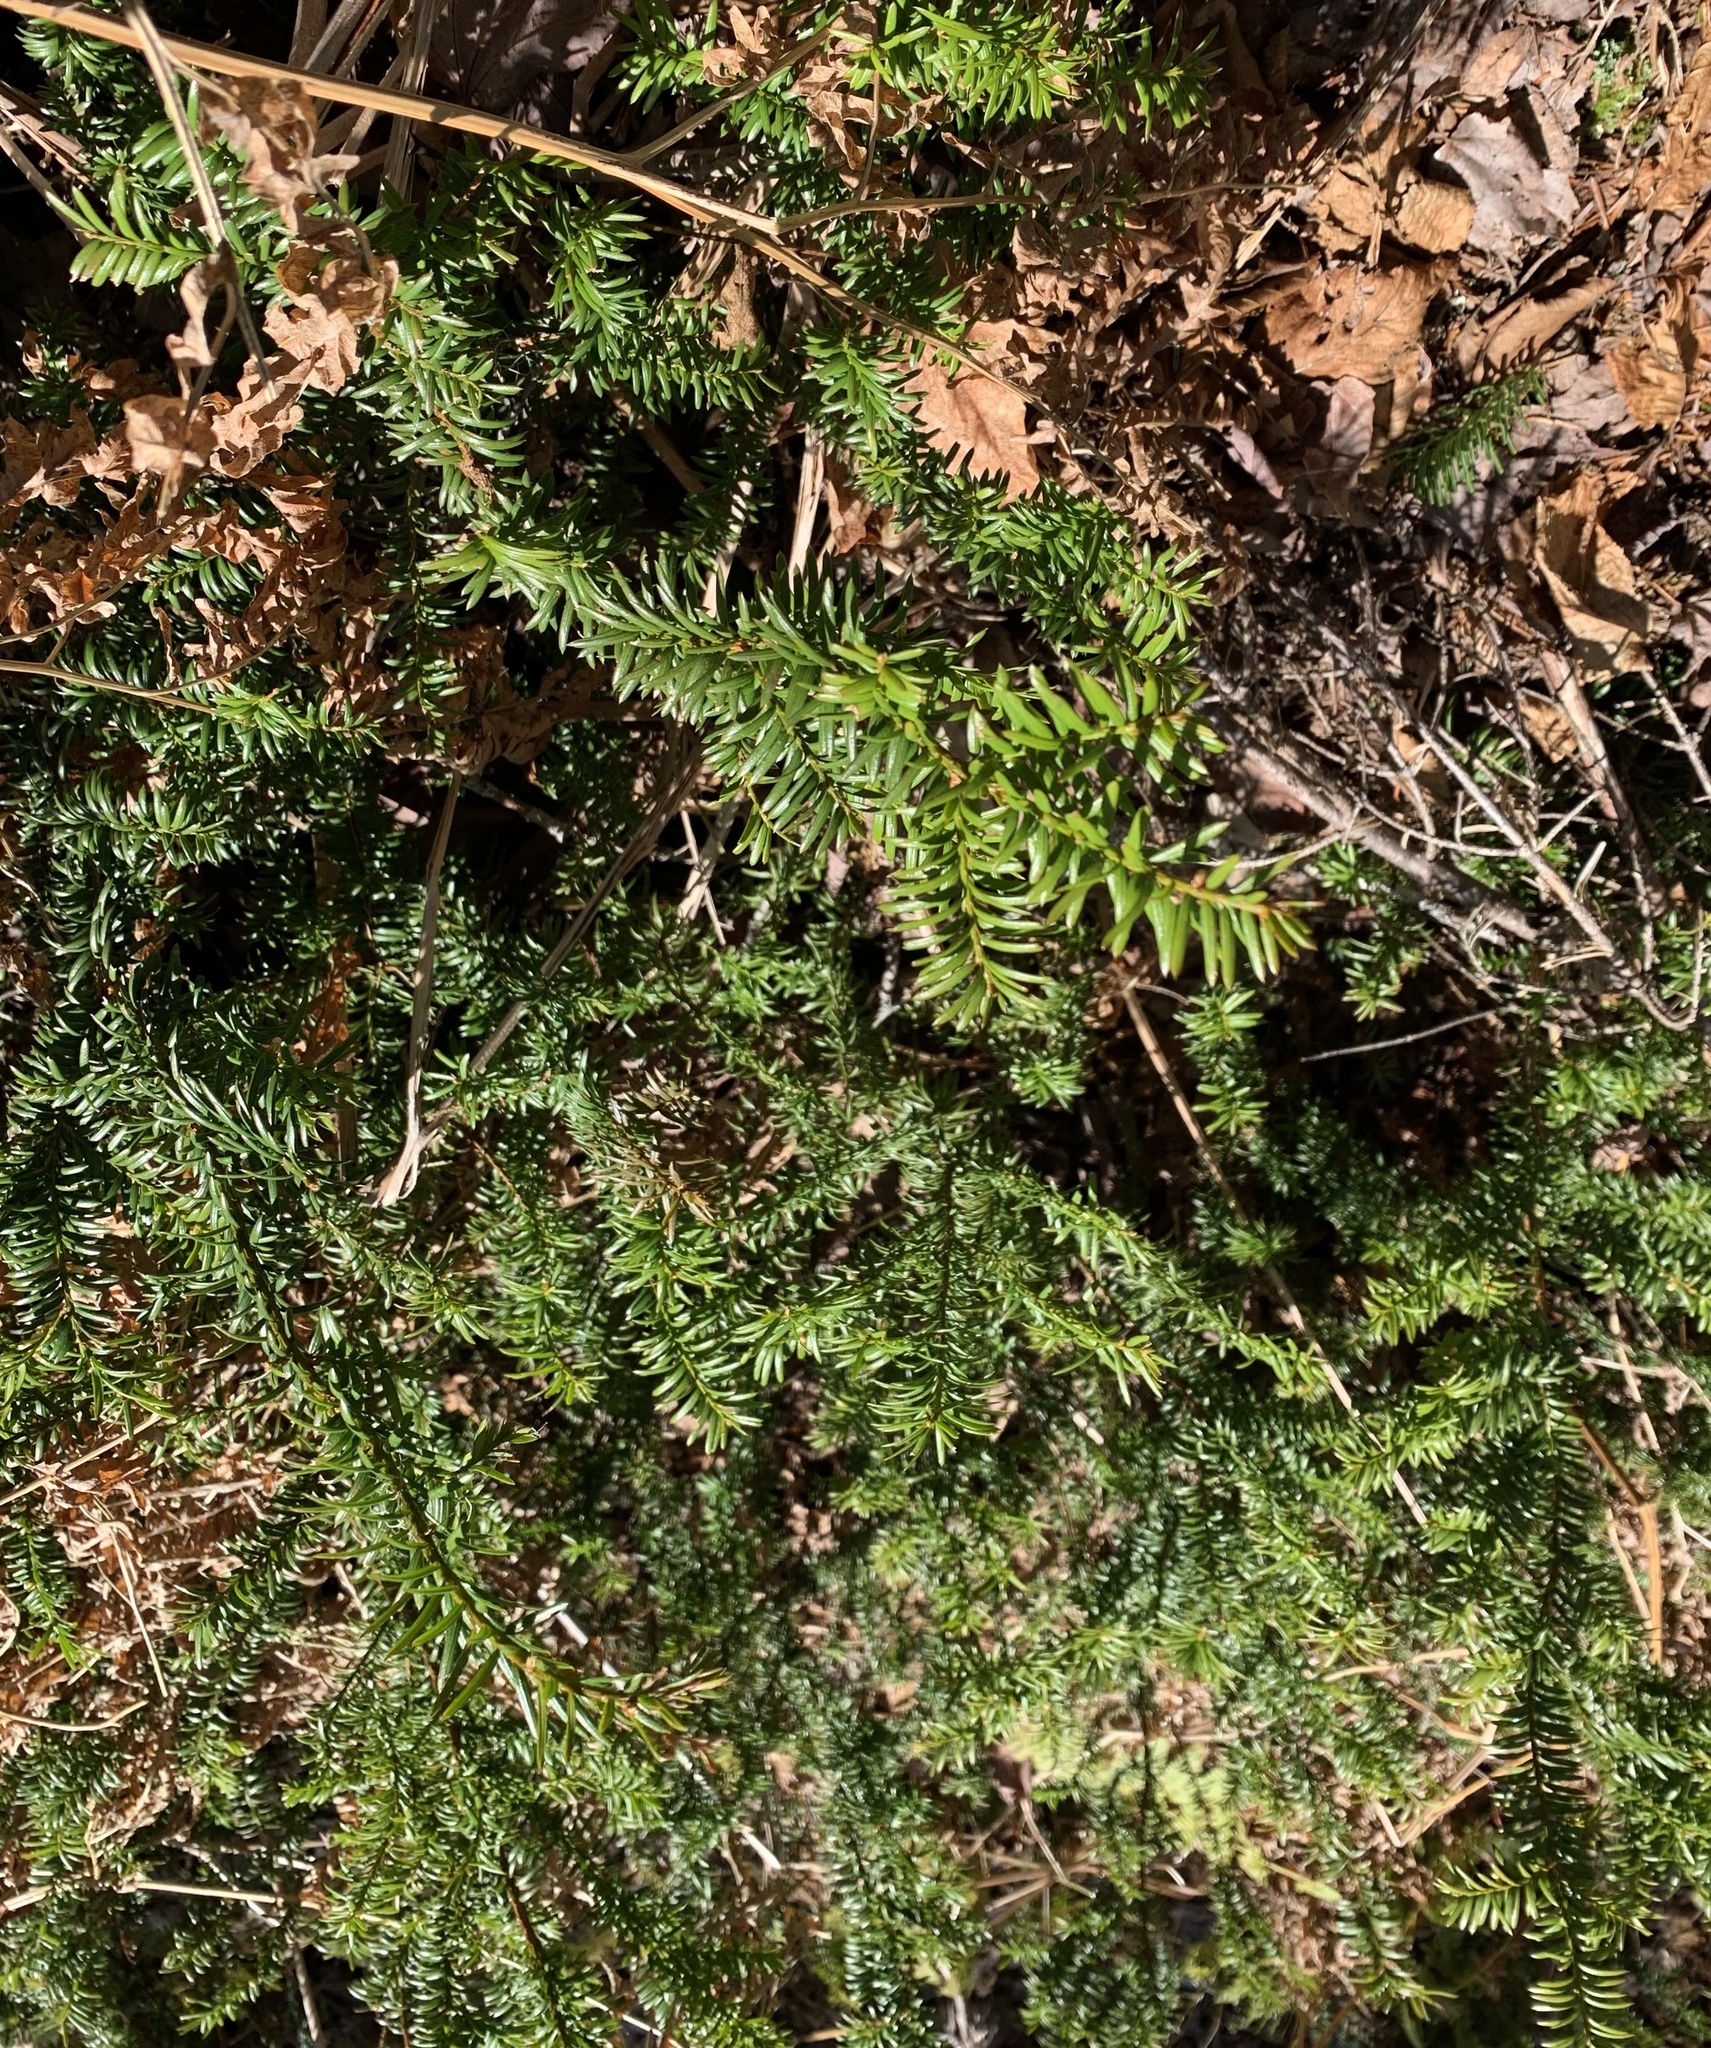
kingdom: Plantae
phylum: Tracheophyta
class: Pinopsida
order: Pinales
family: Taxaceae
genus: Taxus
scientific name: Taxus canadensis
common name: American yew
